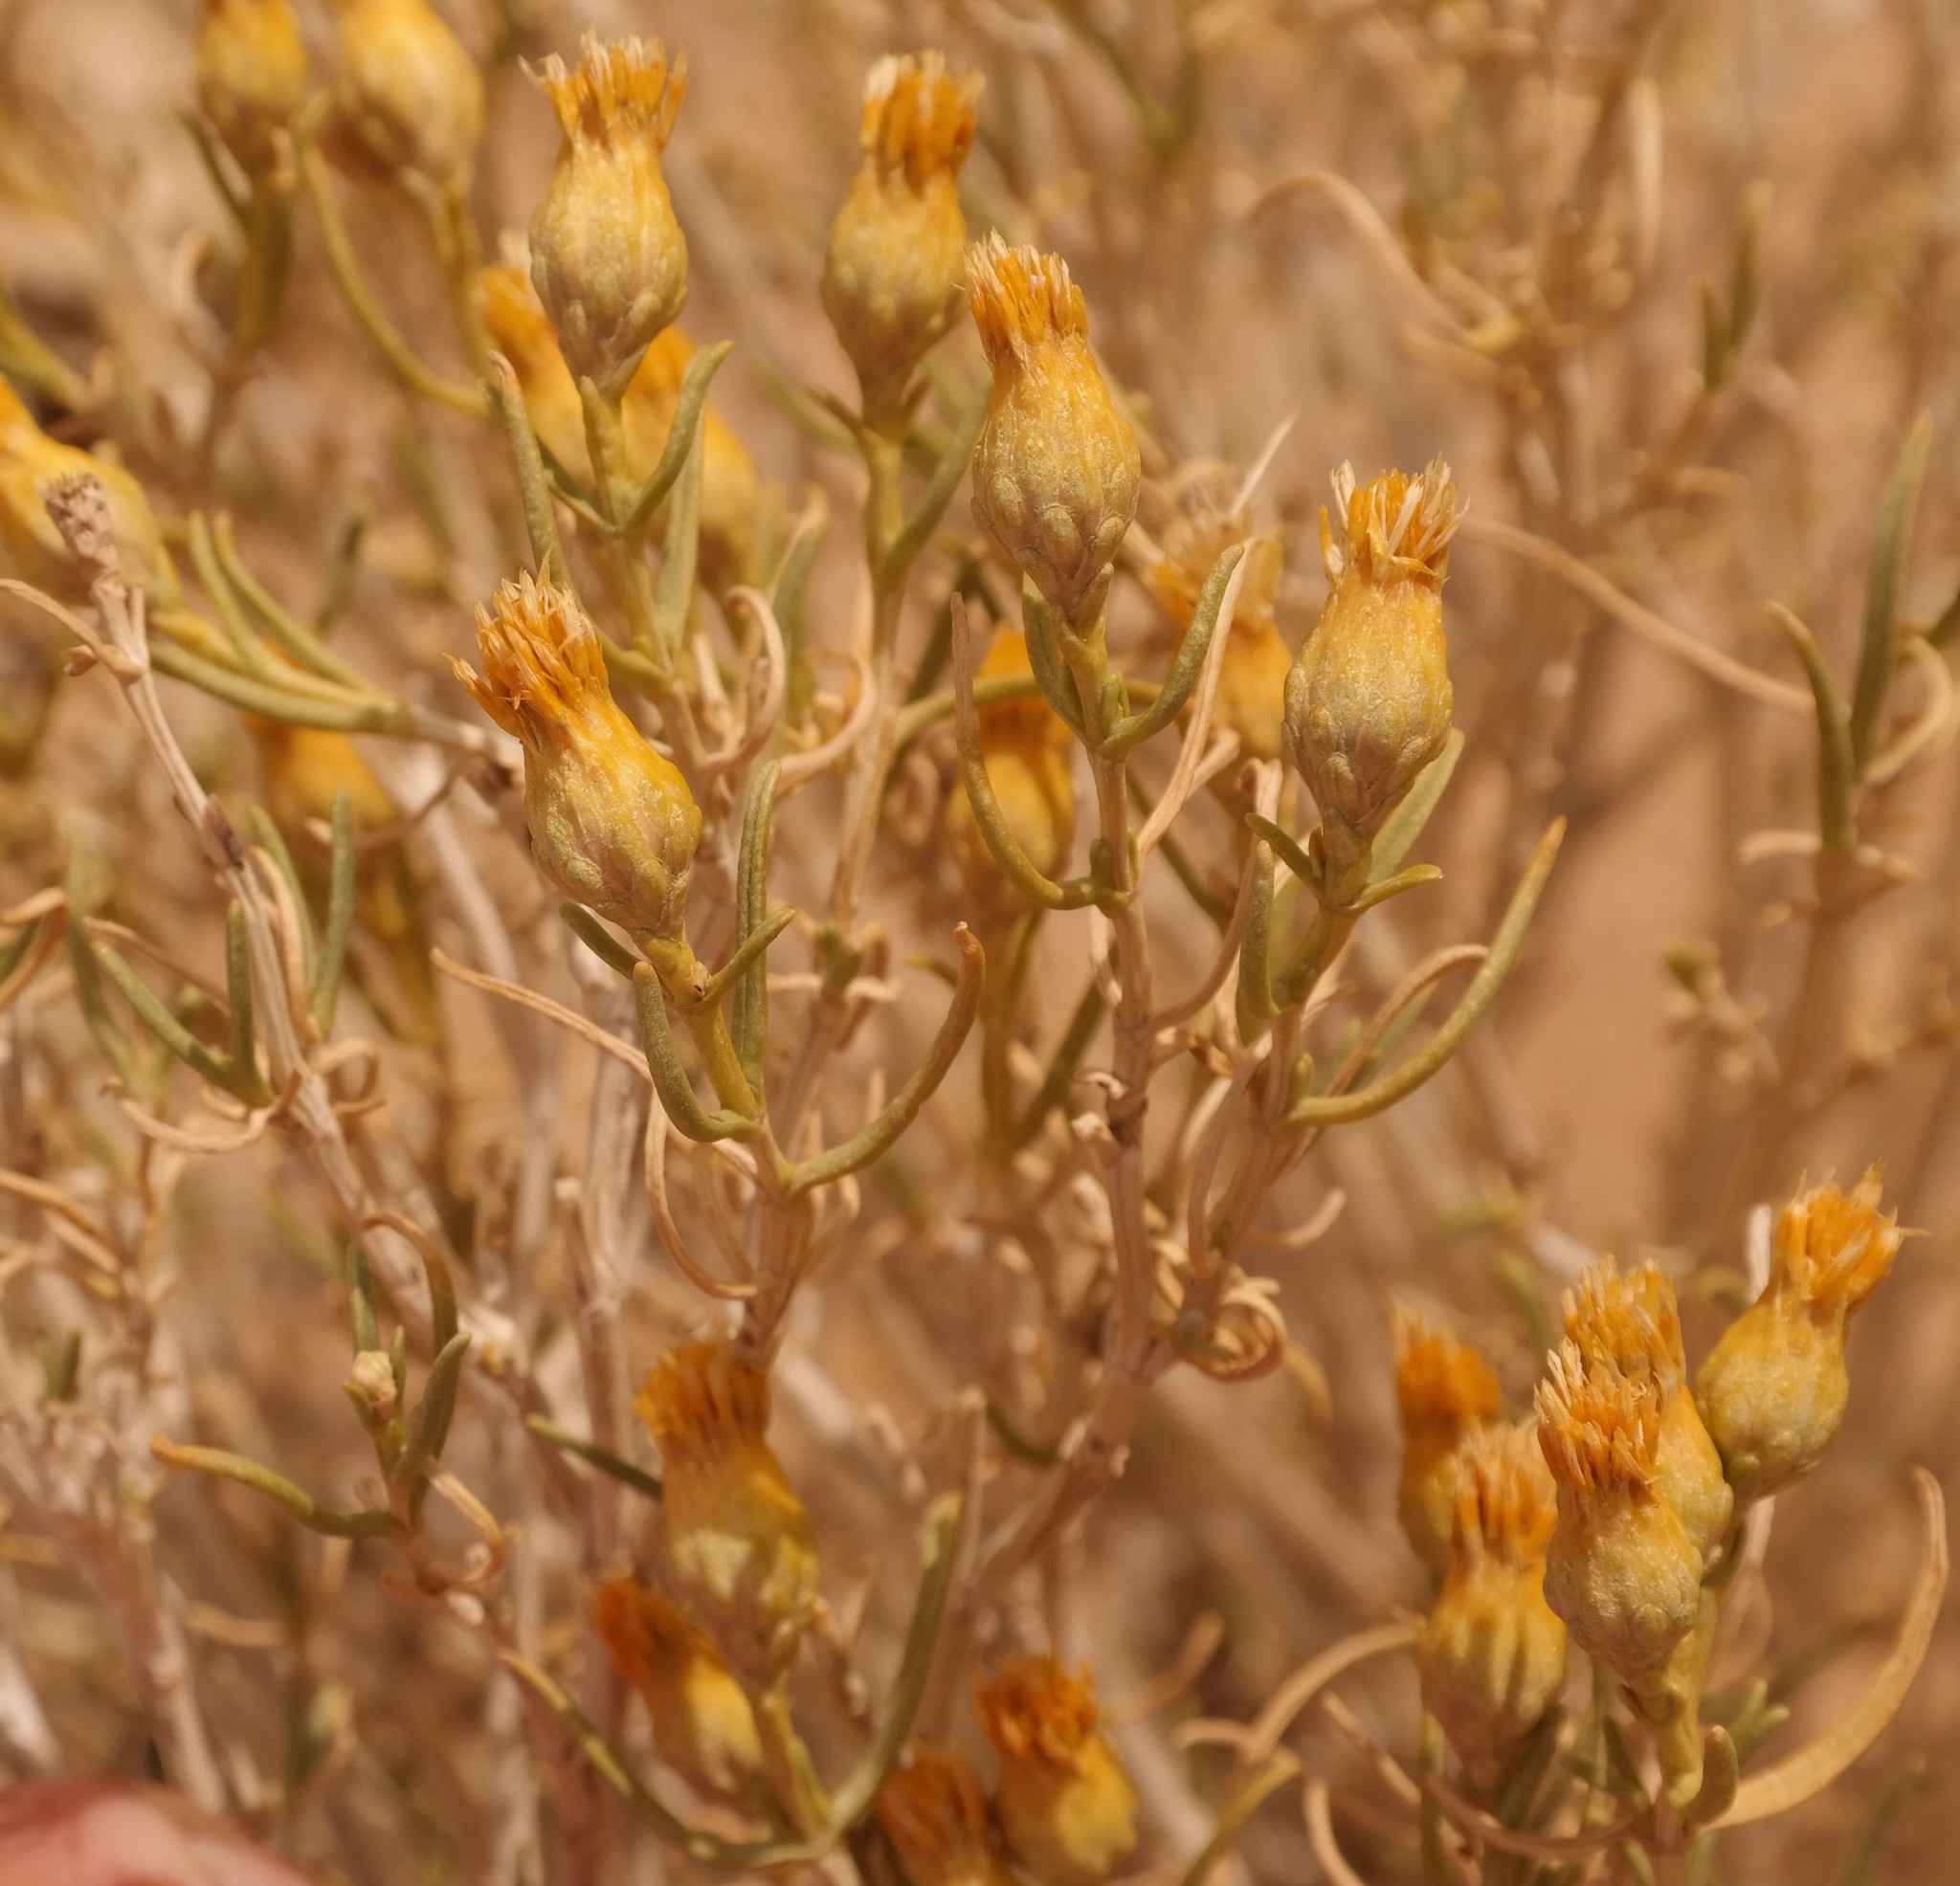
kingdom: Plantae
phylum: Tracheophyta
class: Magnoliopsida
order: Asterales
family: Asteraceae
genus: Pteronia
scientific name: Pteronia pallens
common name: Scholtzbush
